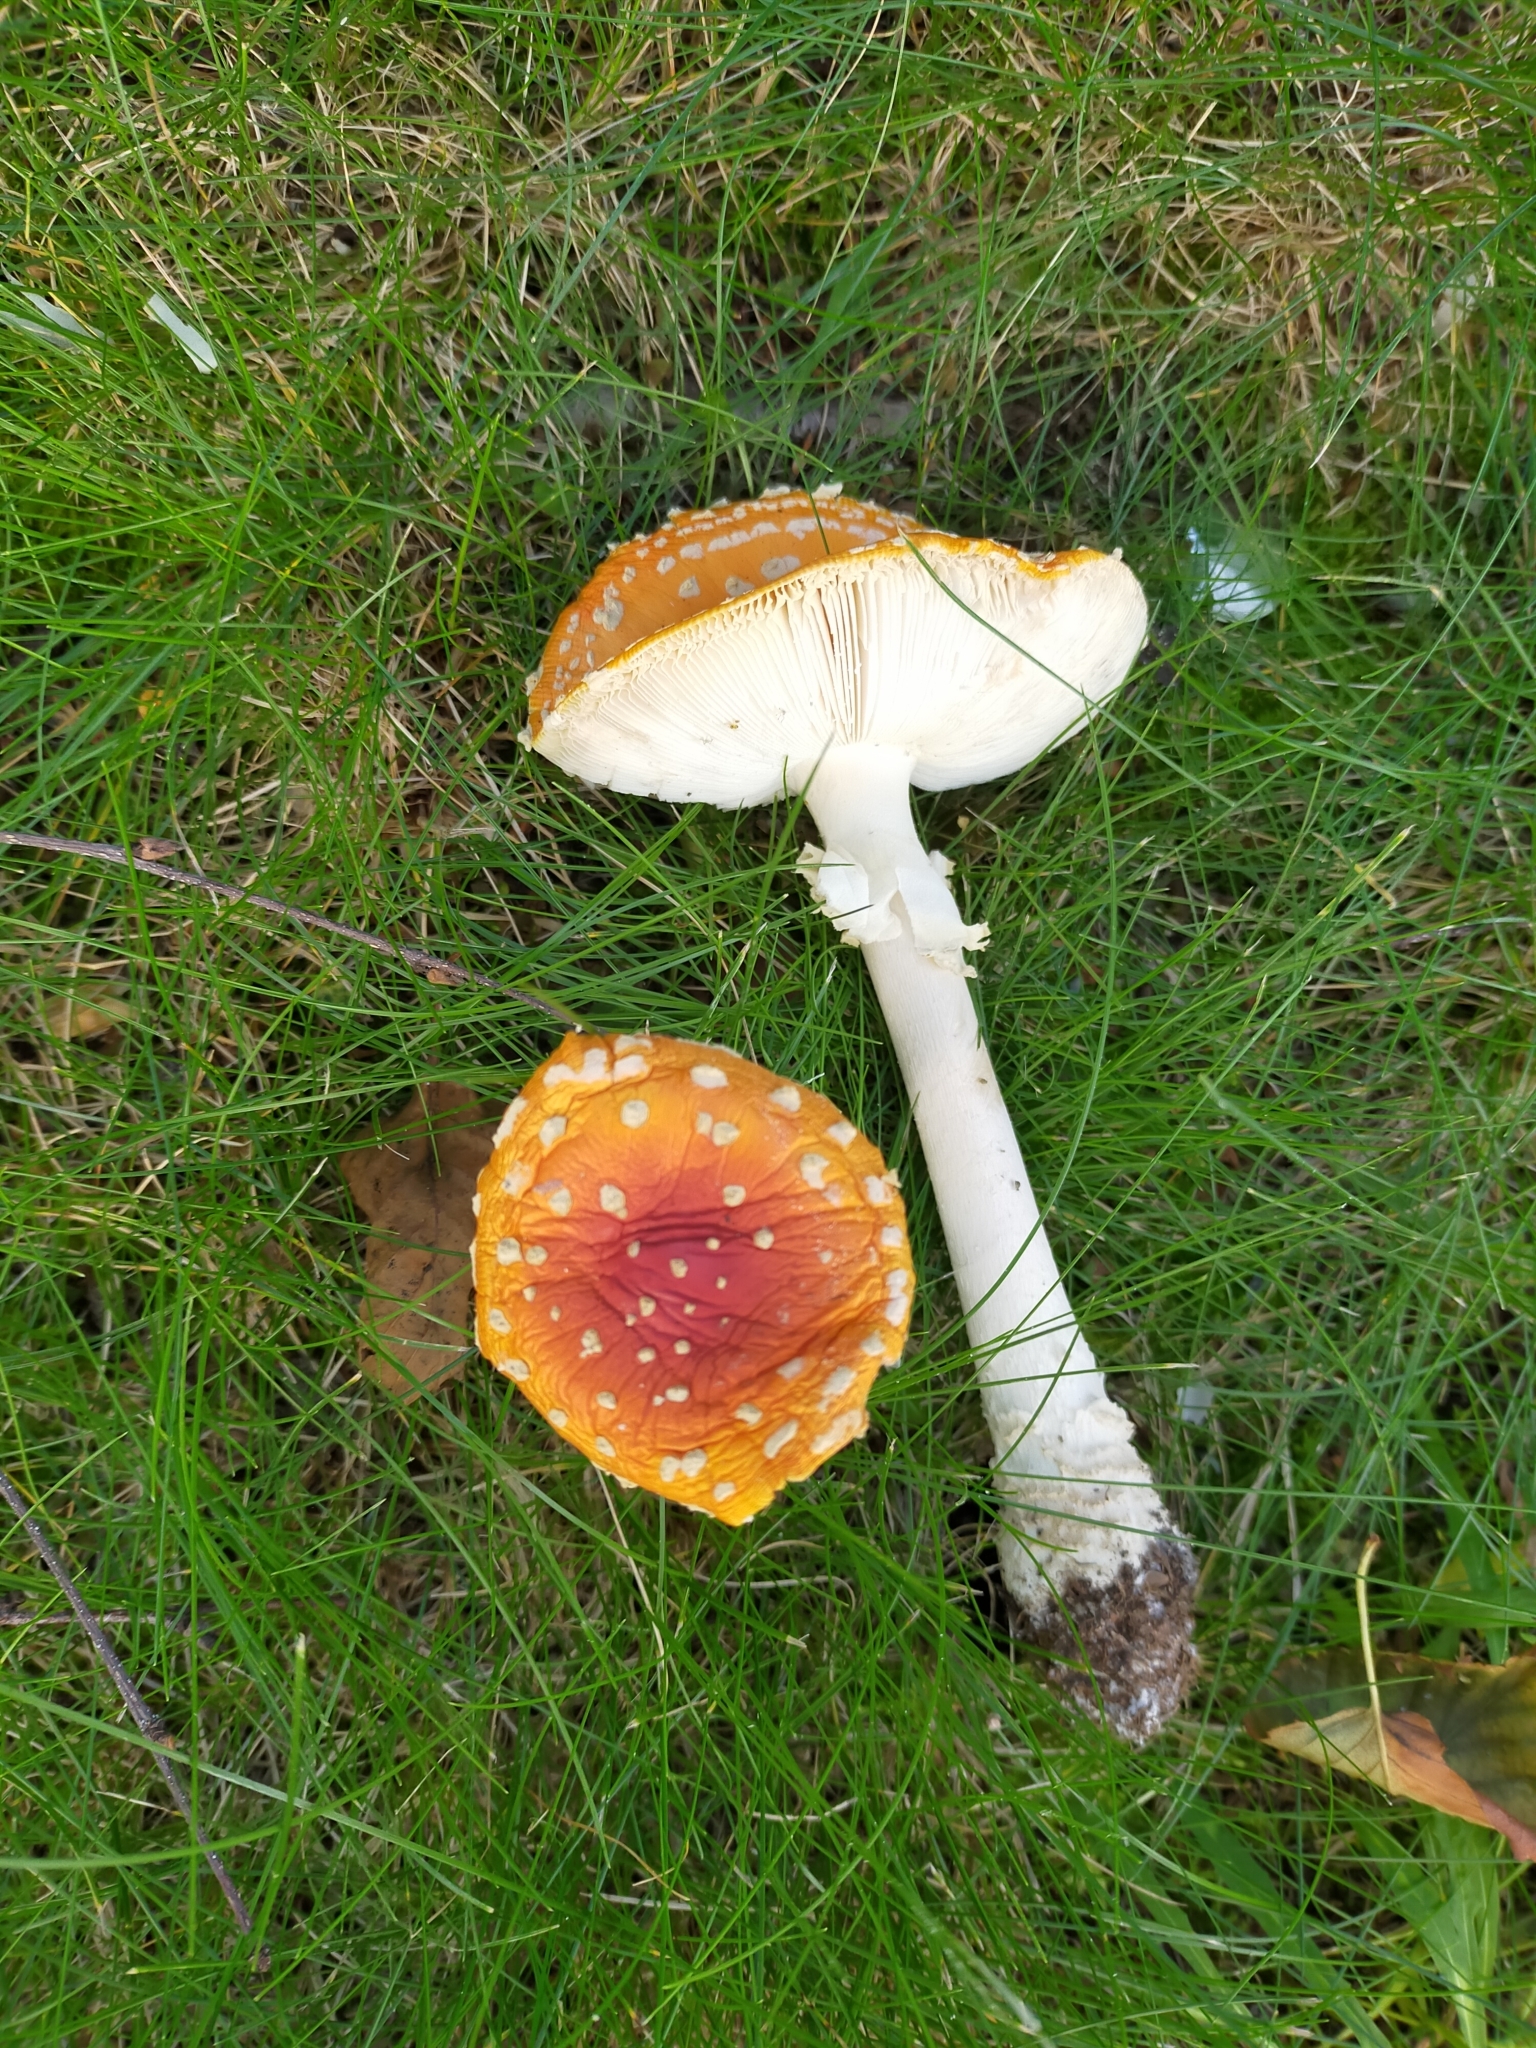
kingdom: Fungi
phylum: Basidiomycota
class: Agaricomycetes
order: Agaricales
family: Amanitaceae
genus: Amanita
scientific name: Amanita muscaria
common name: Fly agaric
